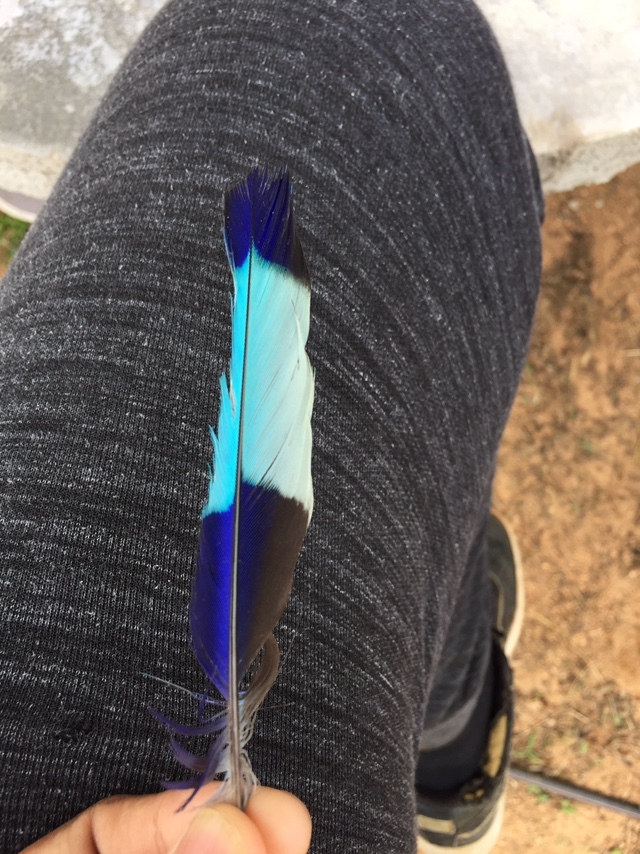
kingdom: Animalia
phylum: Chordata
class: Aves
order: Coraciiformes
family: Coraciidae
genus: Coracias
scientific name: Coracias benghalensis
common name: Indian roller
